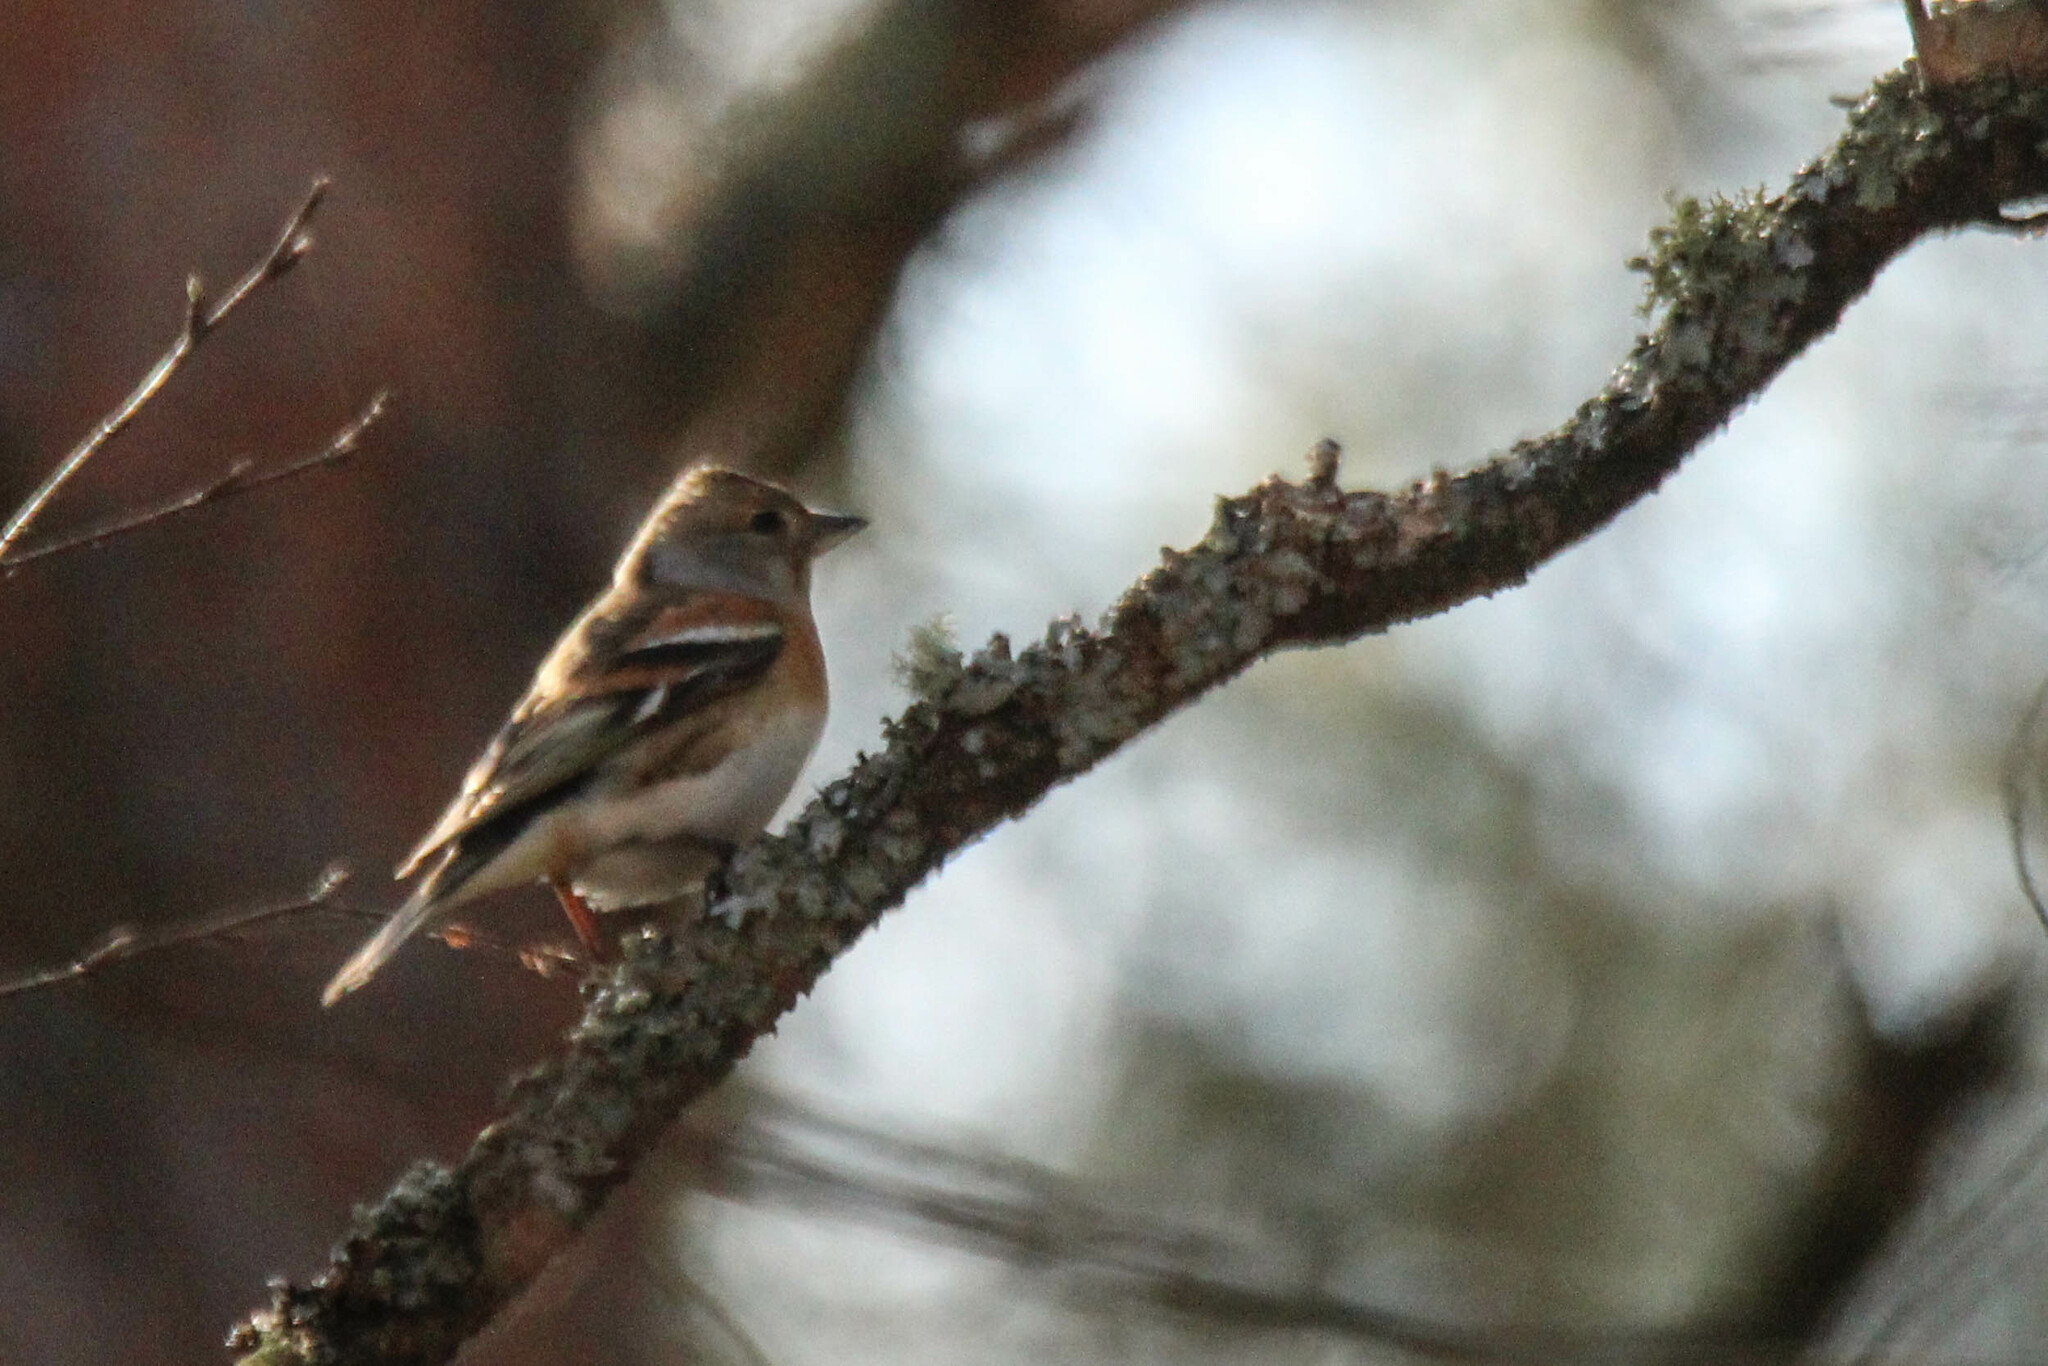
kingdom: Animalia
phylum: Chordata
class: Aves
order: Passeriformes
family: Fringillidae
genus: Fringilla
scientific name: Fringilla montifringilla
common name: Brambling
